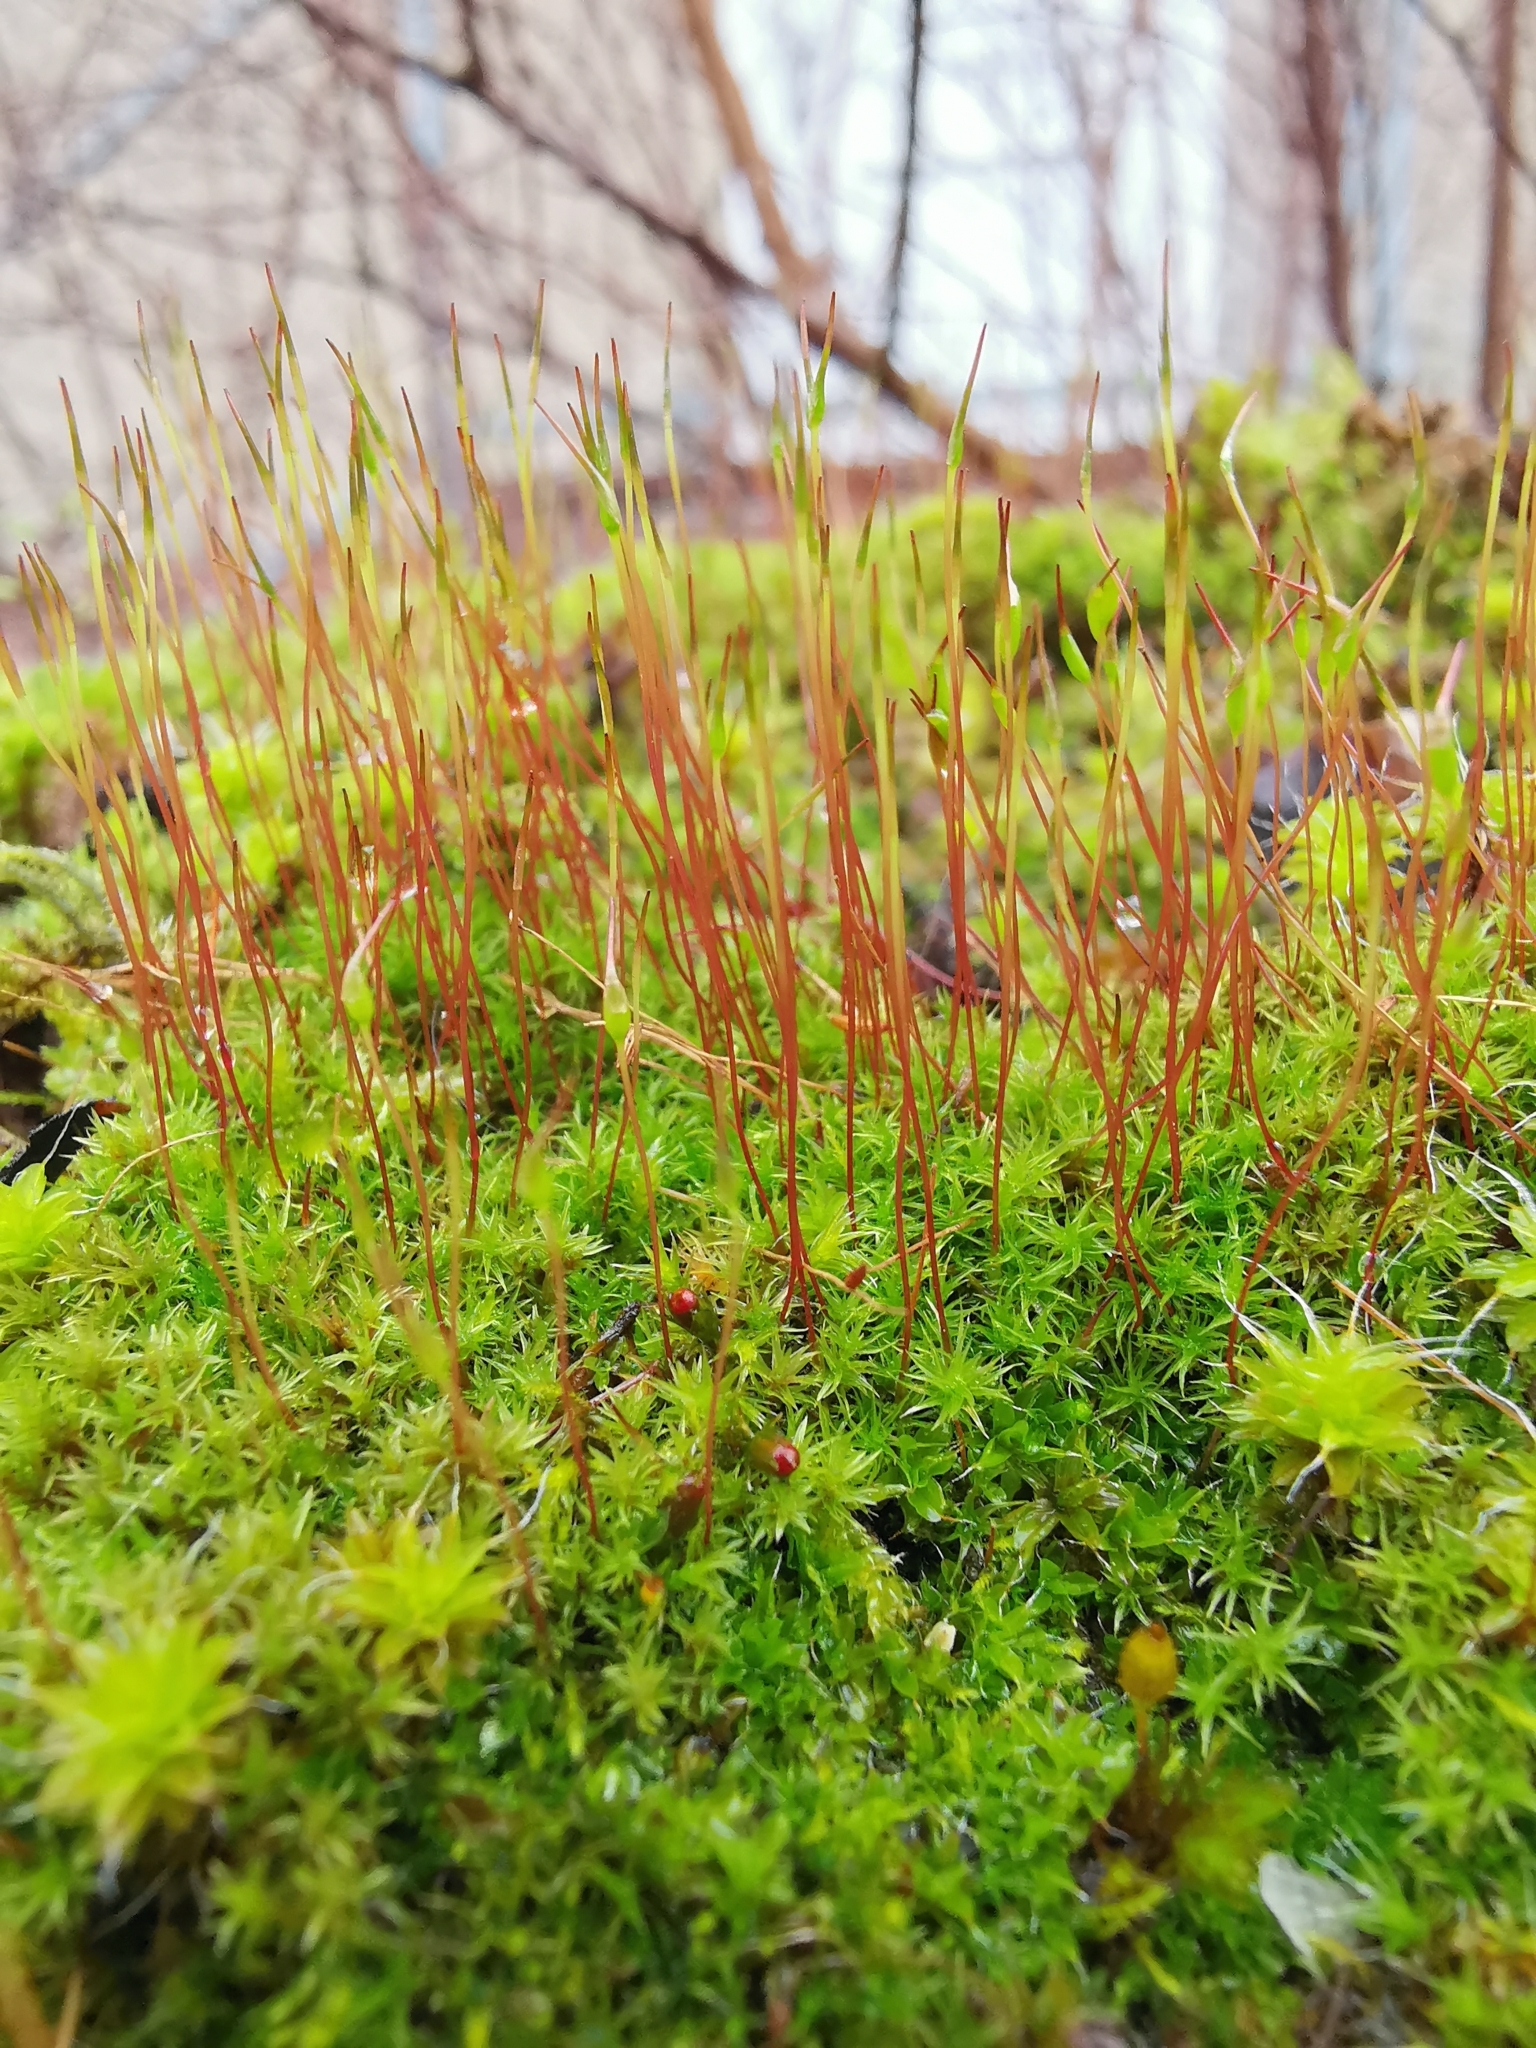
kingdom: Plantae
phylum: Bryophyta
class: Bryopsida
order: Dicranales
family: Ditrichaceae
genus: Ceratodon
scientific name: Ceratodon purpureus
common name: Redshank
